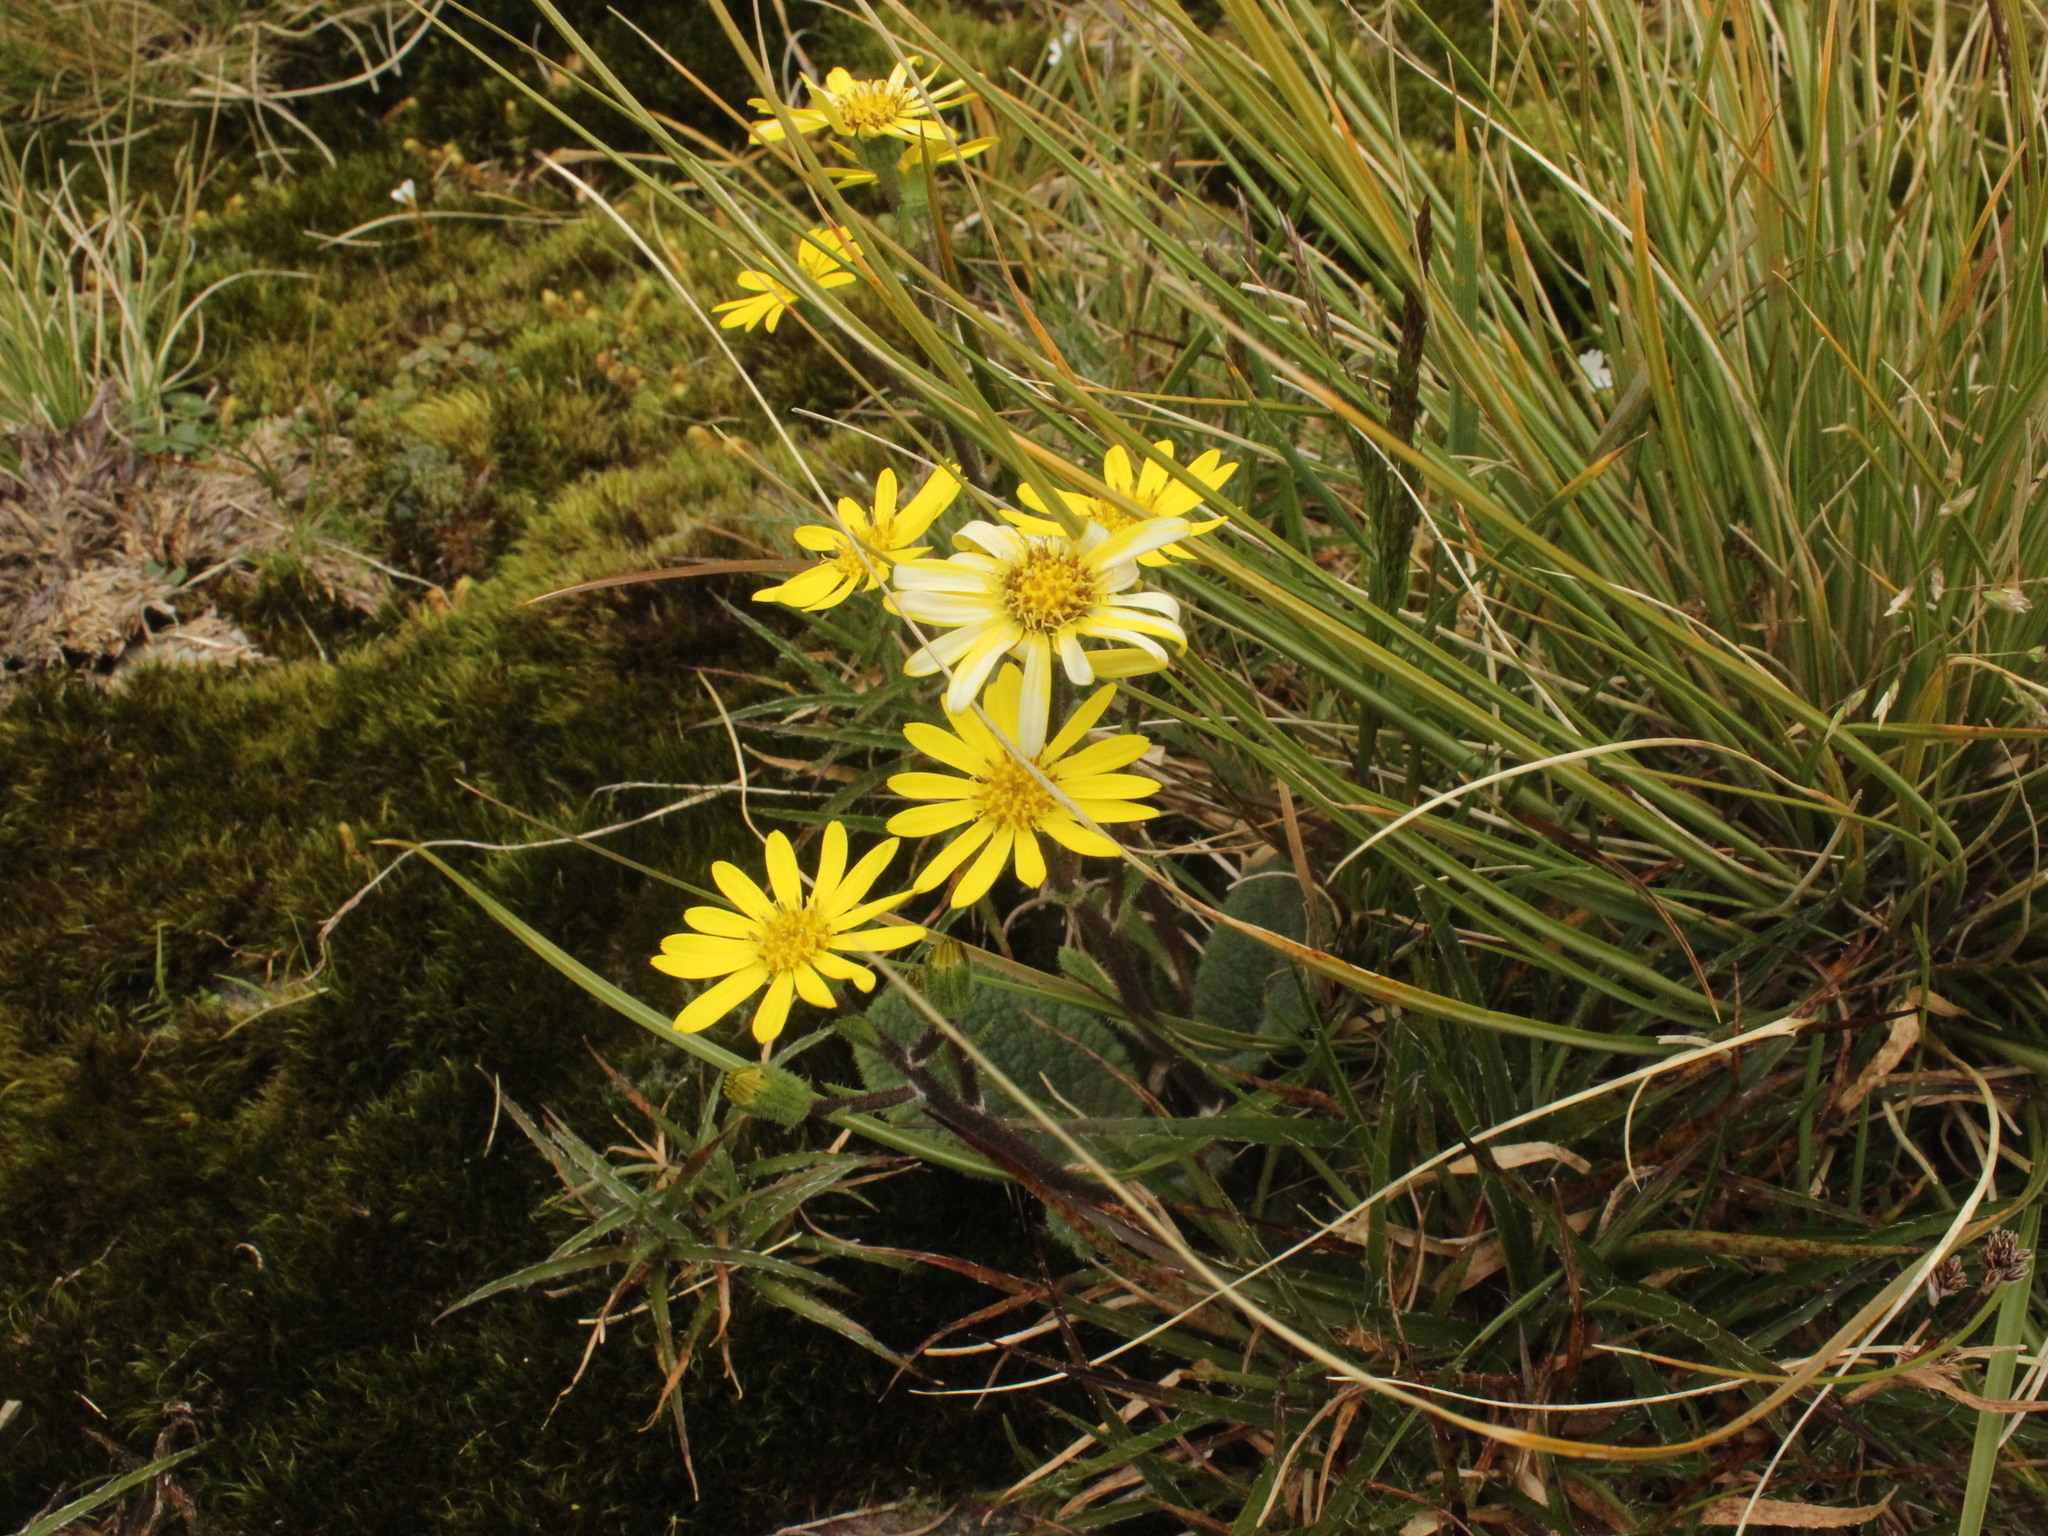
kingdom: Plantae
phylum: Tracheophyta
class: Magnoliopsida
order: Asterales
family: Asteraceae
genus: Brachyglottis
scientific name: Brachyglottis lagopus
